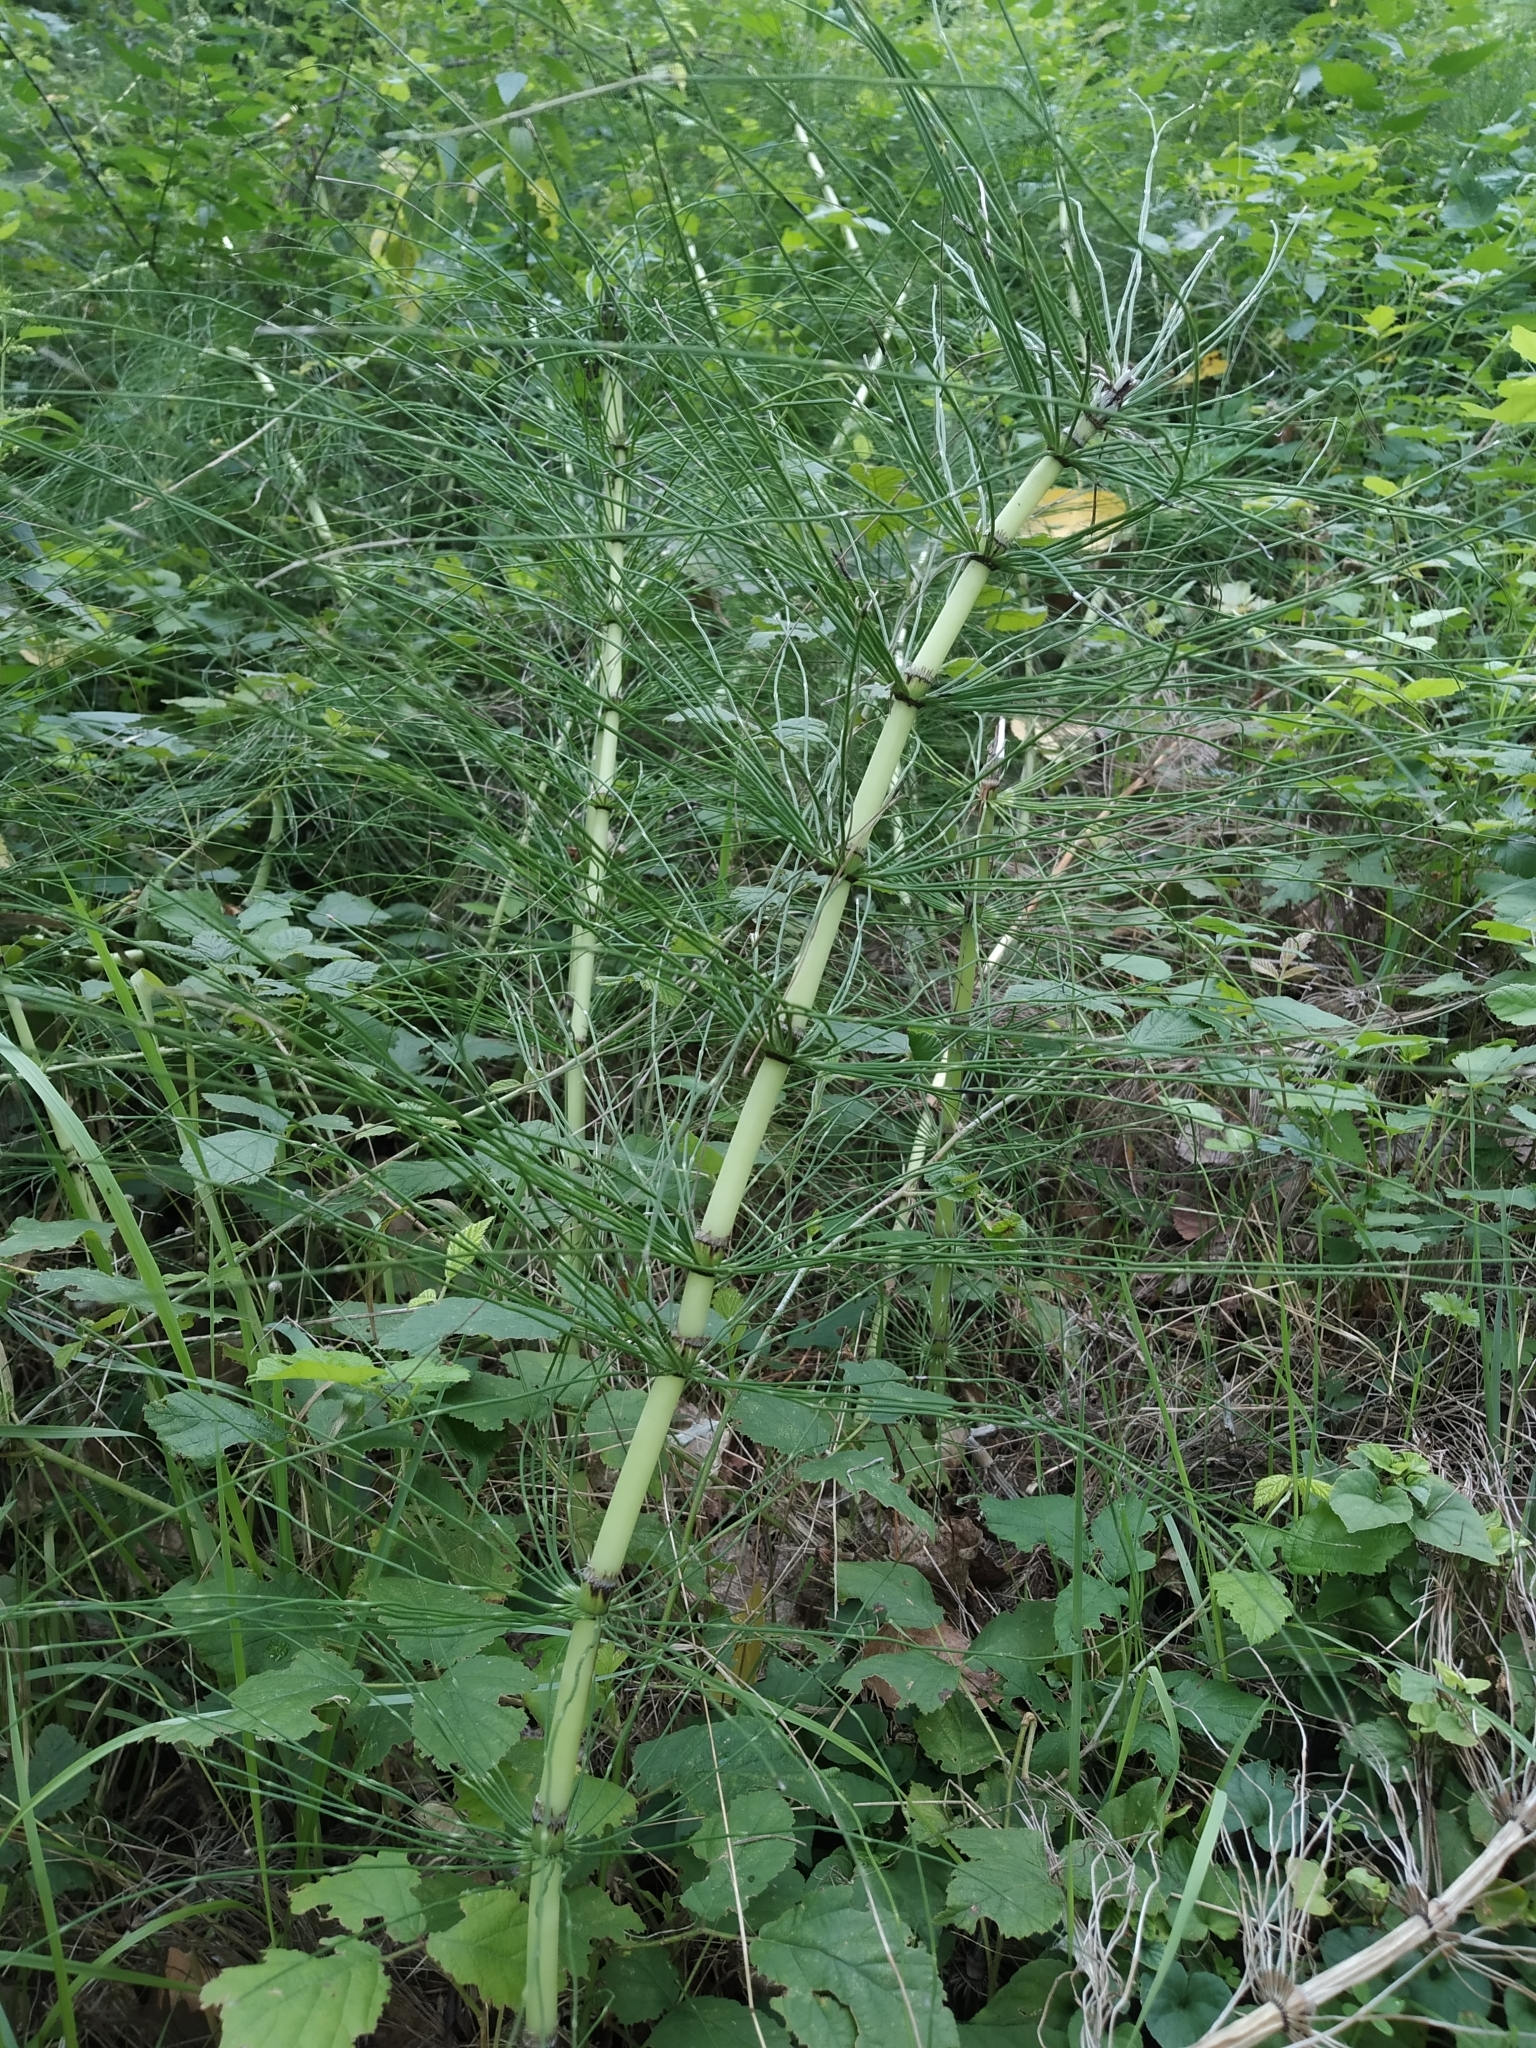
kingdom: Plantae
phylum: Tracheophyta
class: Polypodiopsida
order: Equisetales
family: Equisetaceae
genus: Equisetum
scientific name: Equisetum telmateia
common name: Great horsetail
